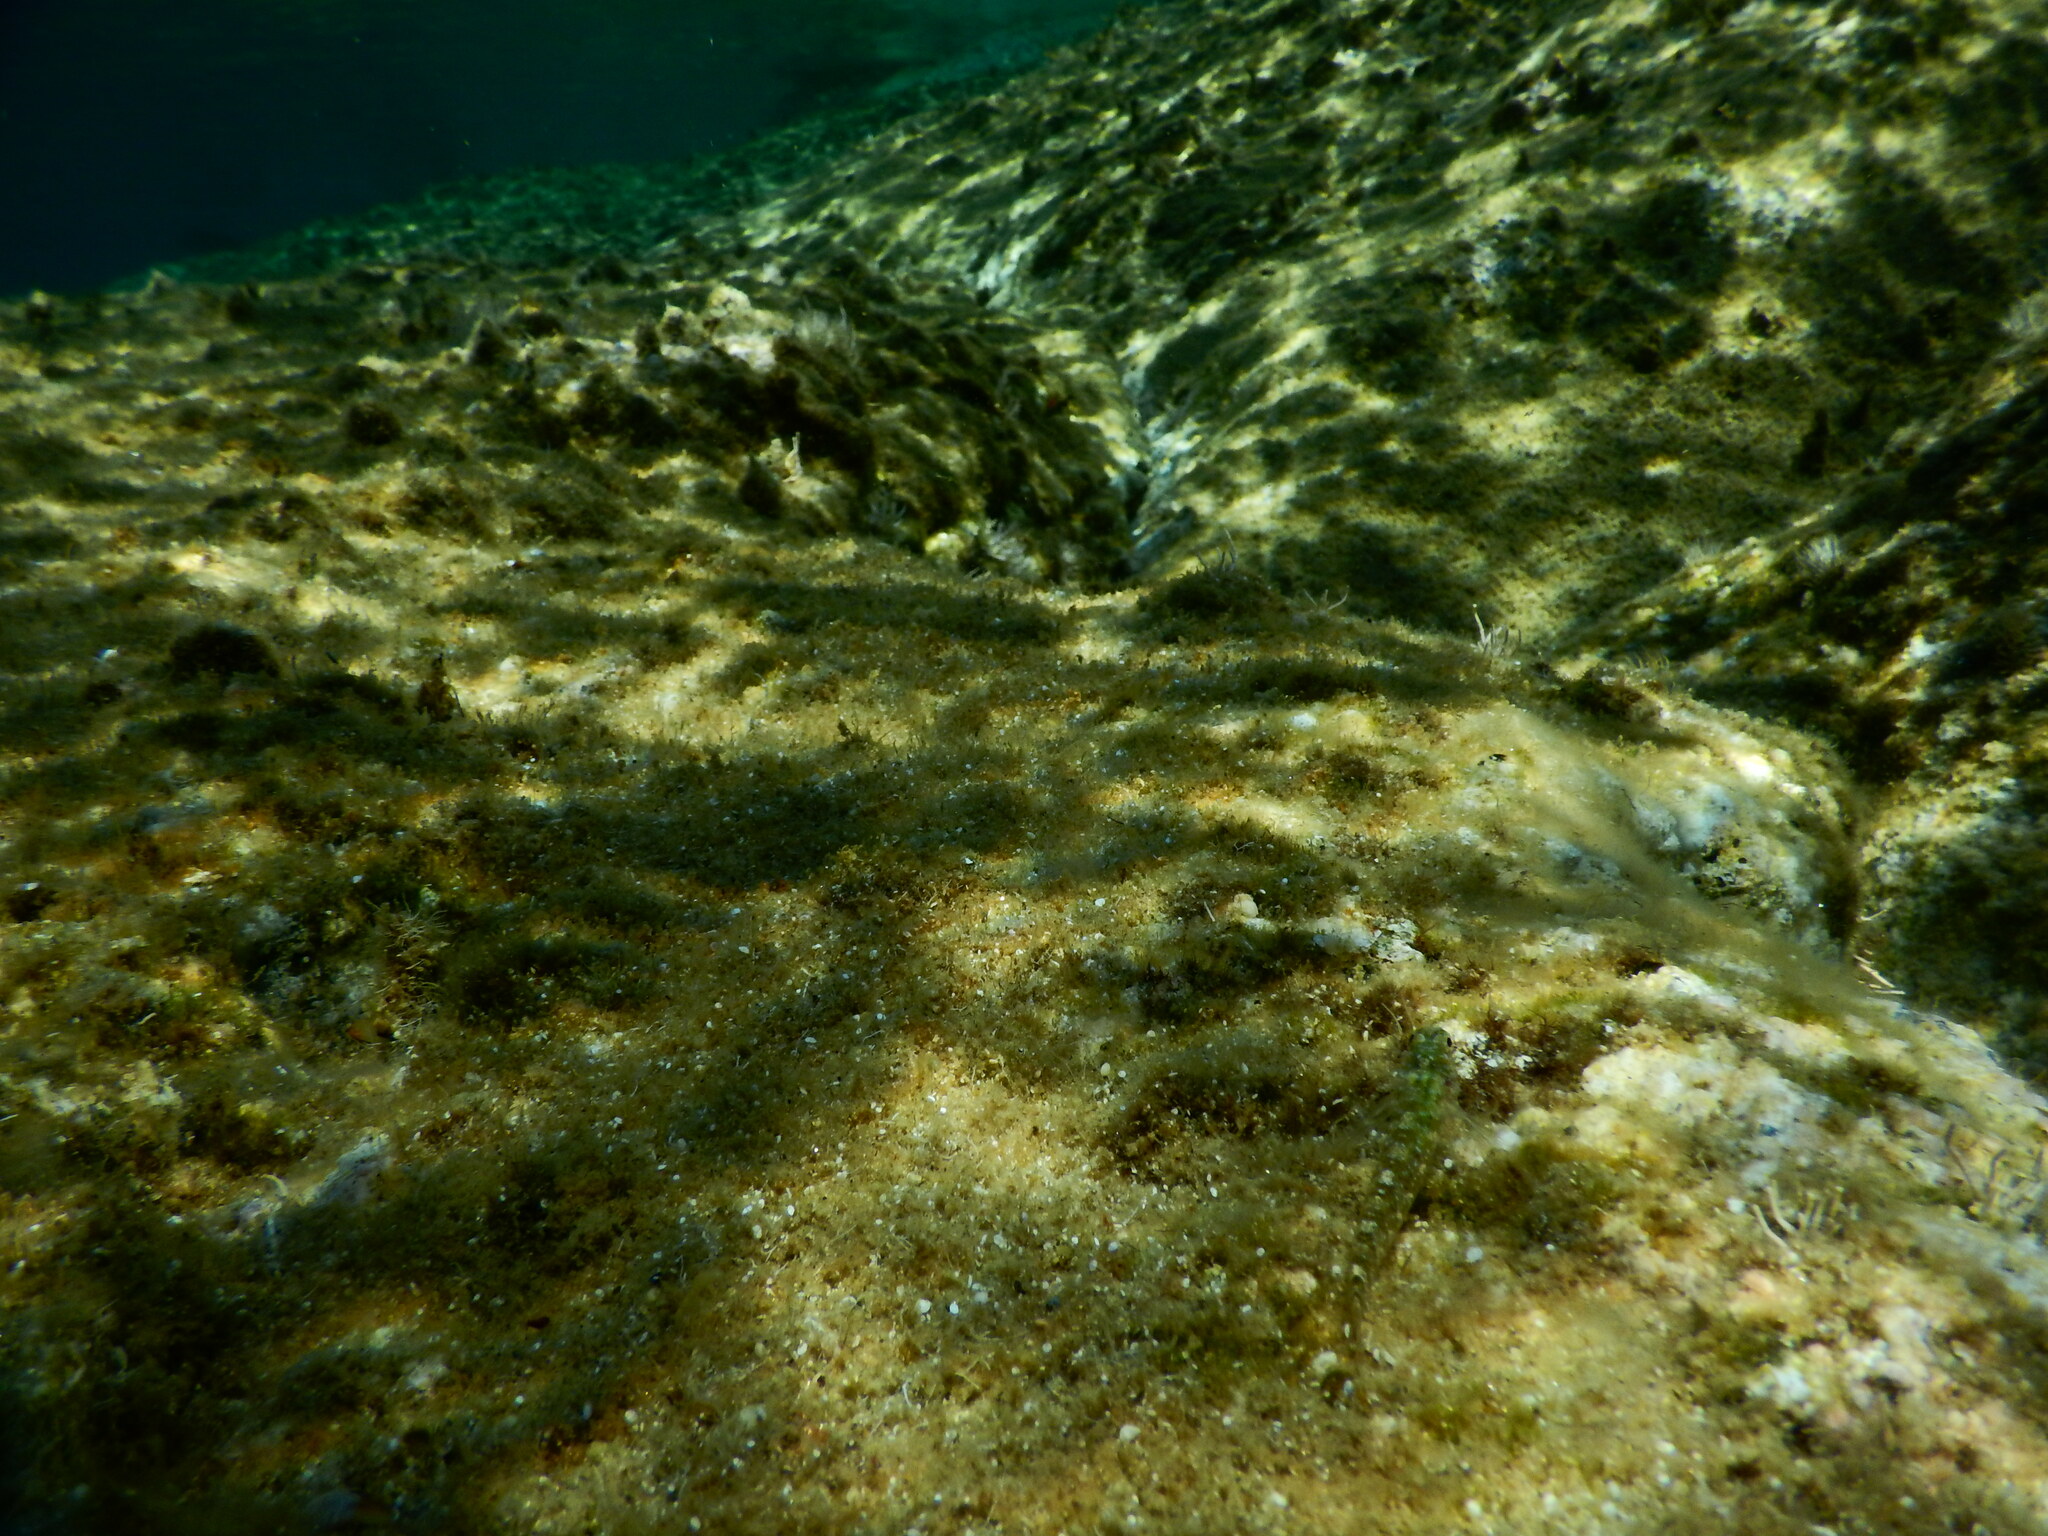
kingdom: Animalia
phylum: Chordata
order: Perciformes
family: Tripterygiidae
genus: Tripterygion
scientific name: Tripterygion tripteronotum
